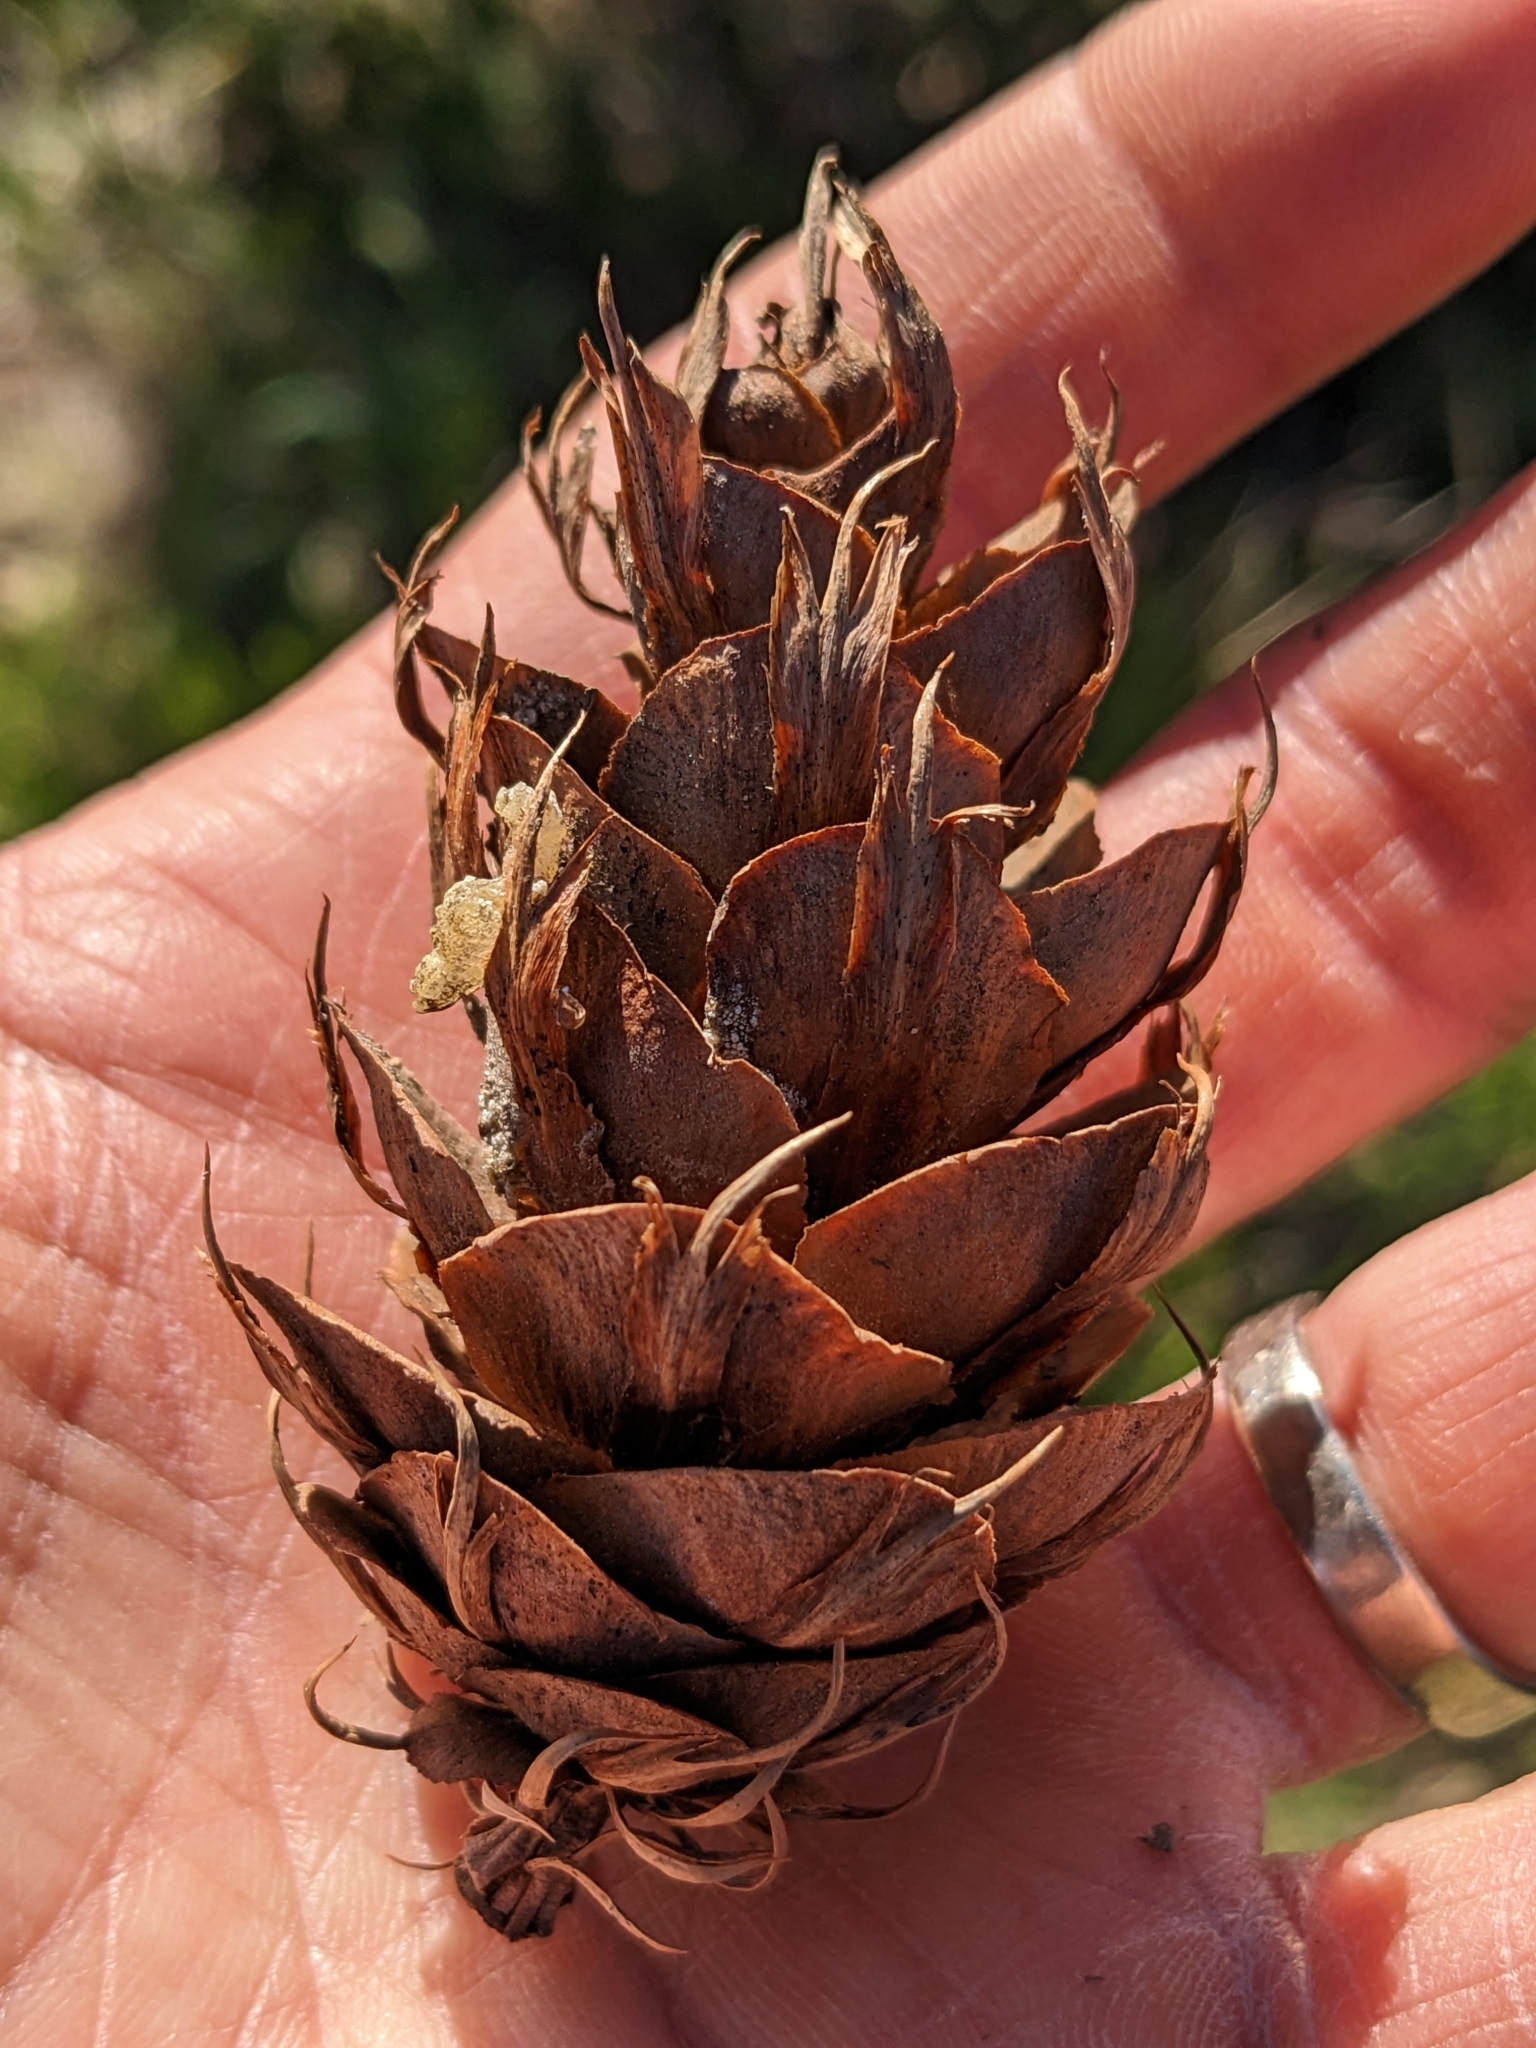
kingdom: Plantae
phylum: Tracheophyta
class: Pinopsida
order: Pinales
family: Pinaceae
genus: Pseudotsuga
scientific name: Pseudotsuga menziesii
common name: Douglas fir
